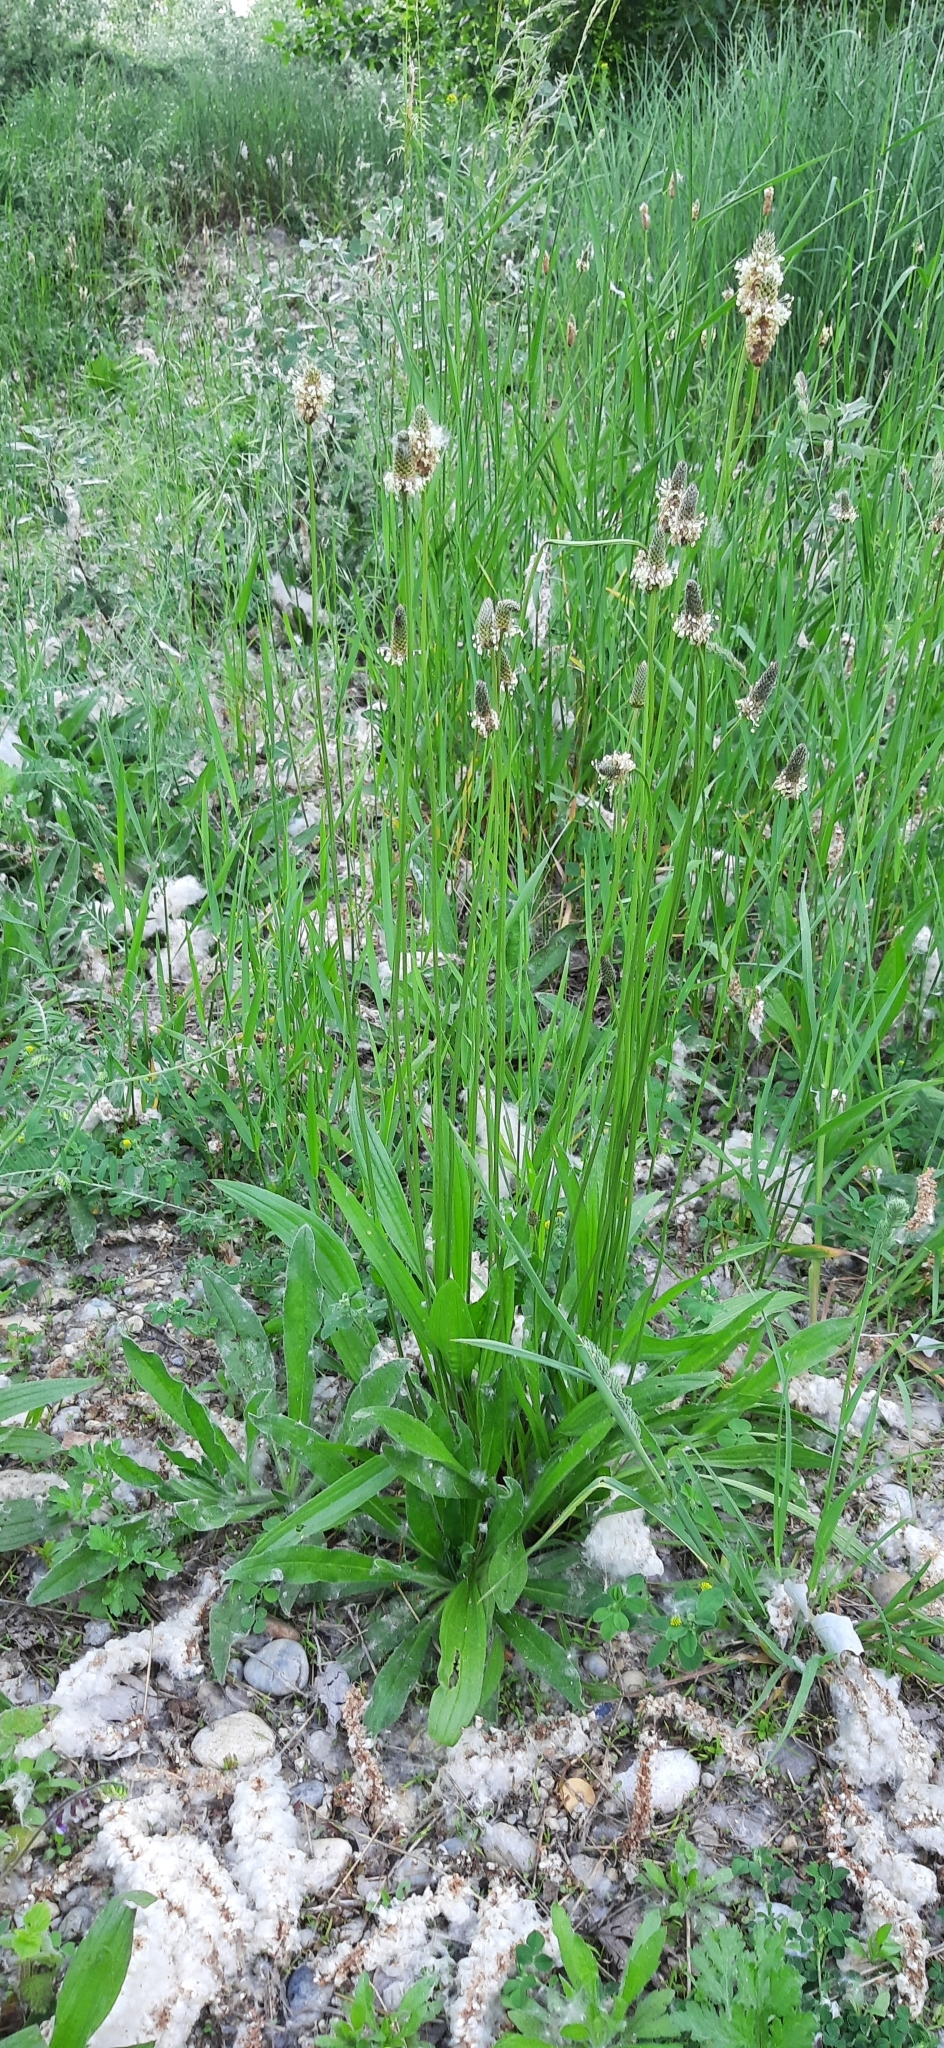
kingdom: Plantae
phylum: Tracheophyta
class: Magnoliopsida
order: Lamiales
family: Plantaginaceae
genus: Plantago
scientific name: Plantago lanceolata
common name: Ribwort plantain
